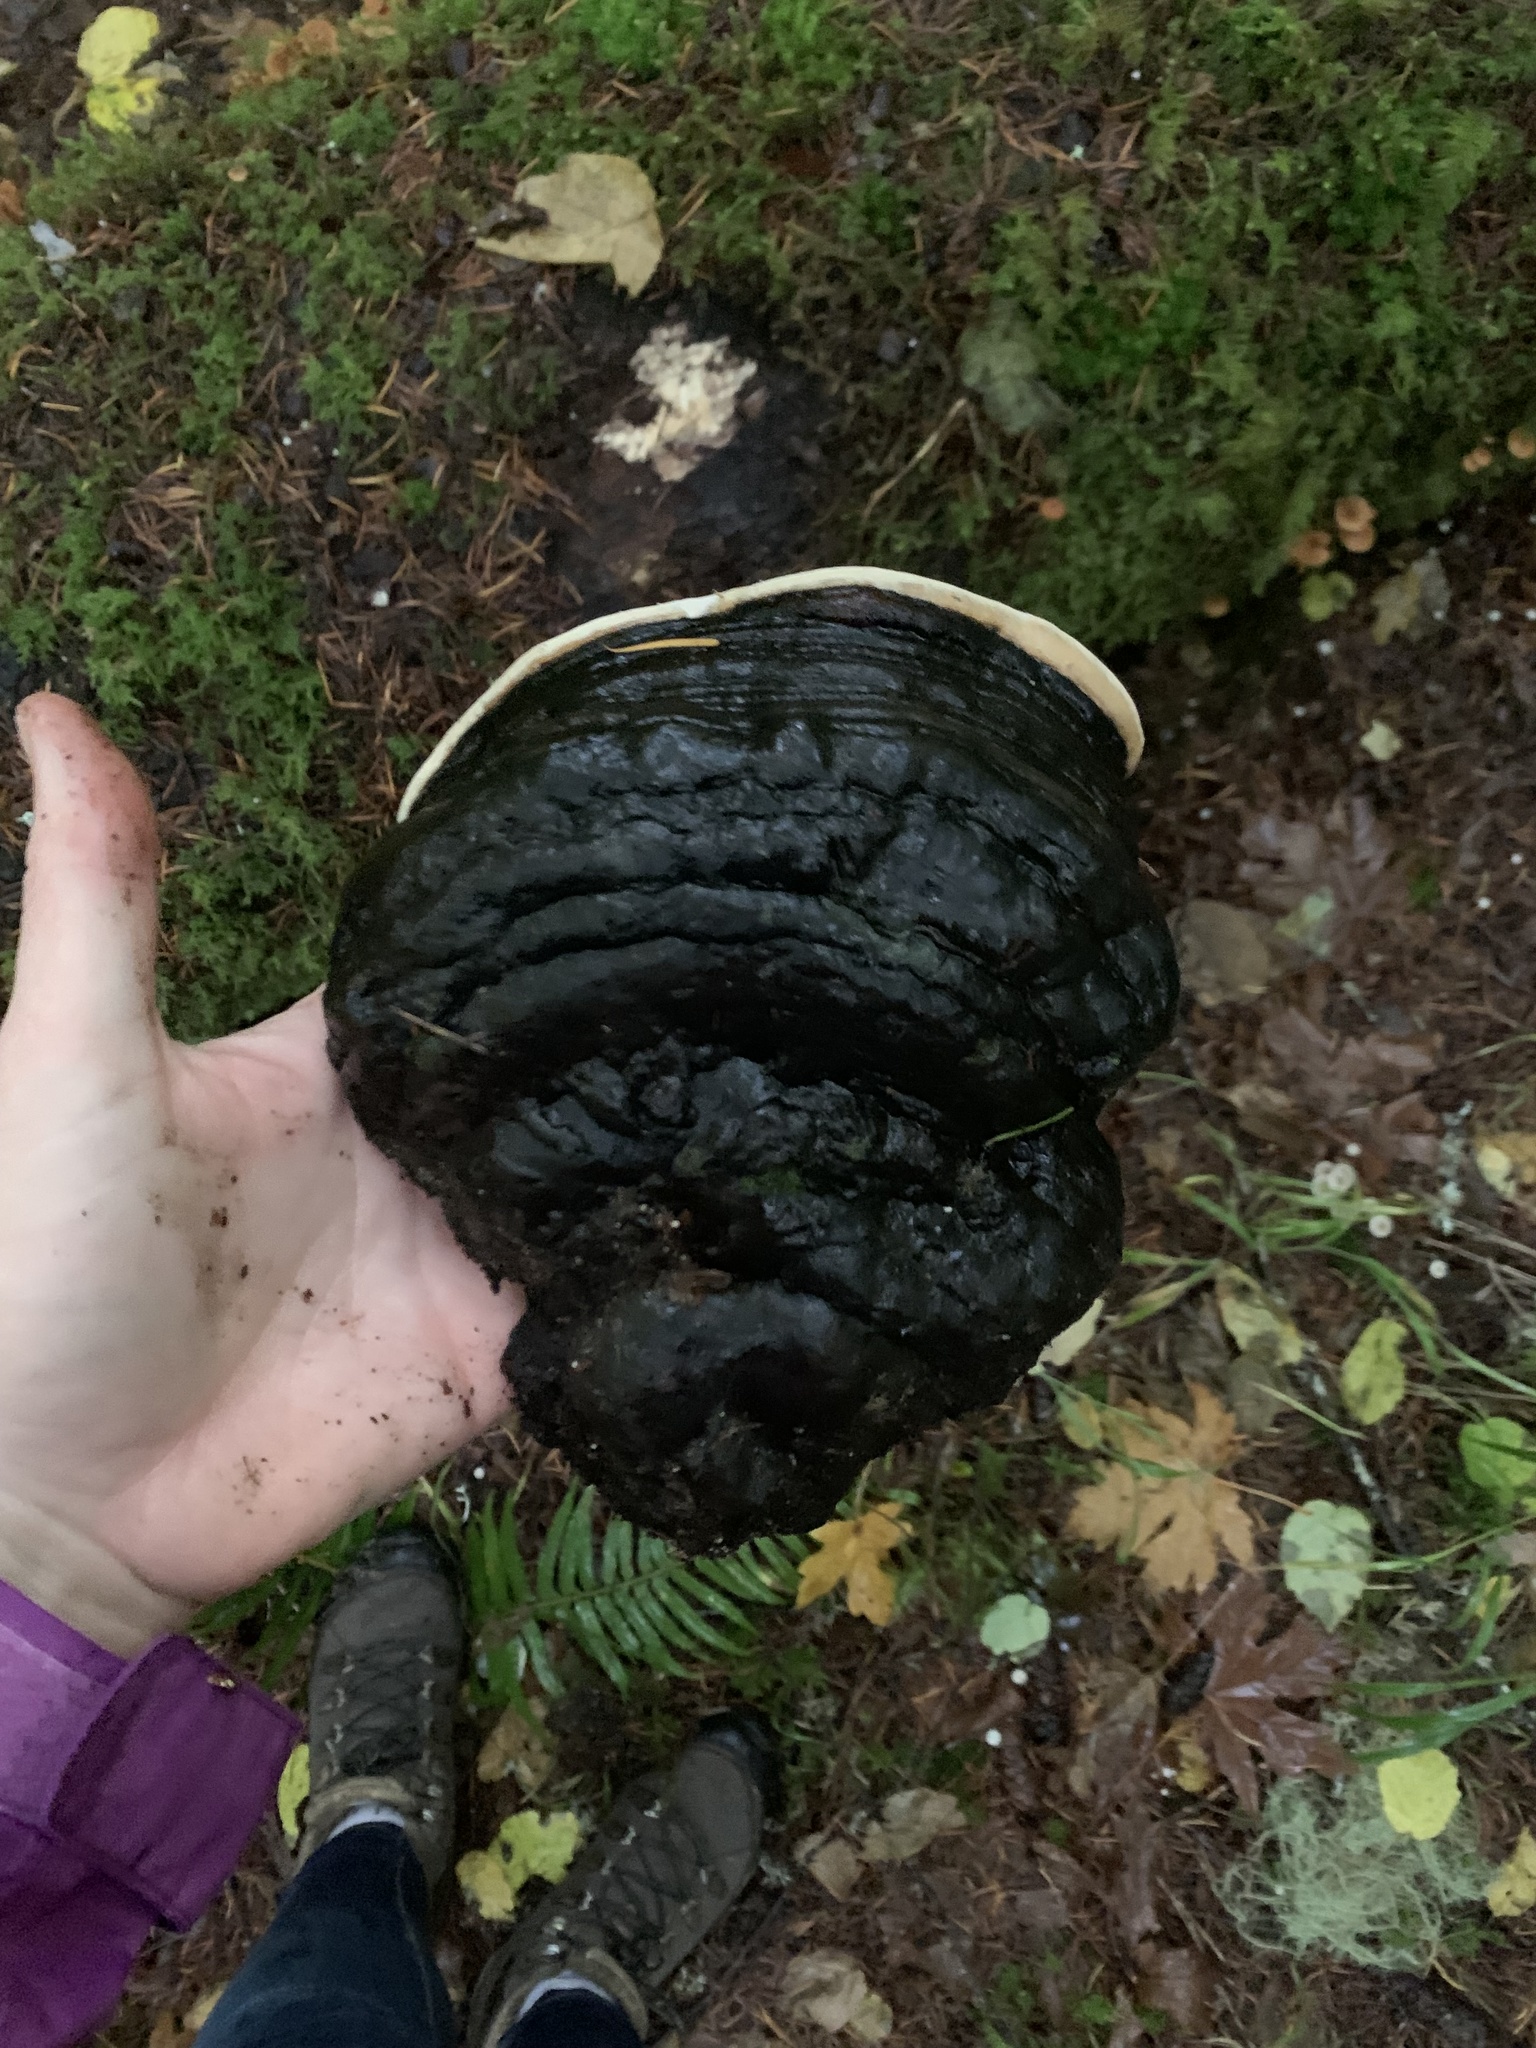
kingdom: Fungi
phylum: Basidiomycota
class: Agaricomycetes
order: Polyporales
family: Fomitopsidaceae
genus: Fomitopsis
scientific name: Fomitopsis ochracea
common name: American brown fomitopsis
